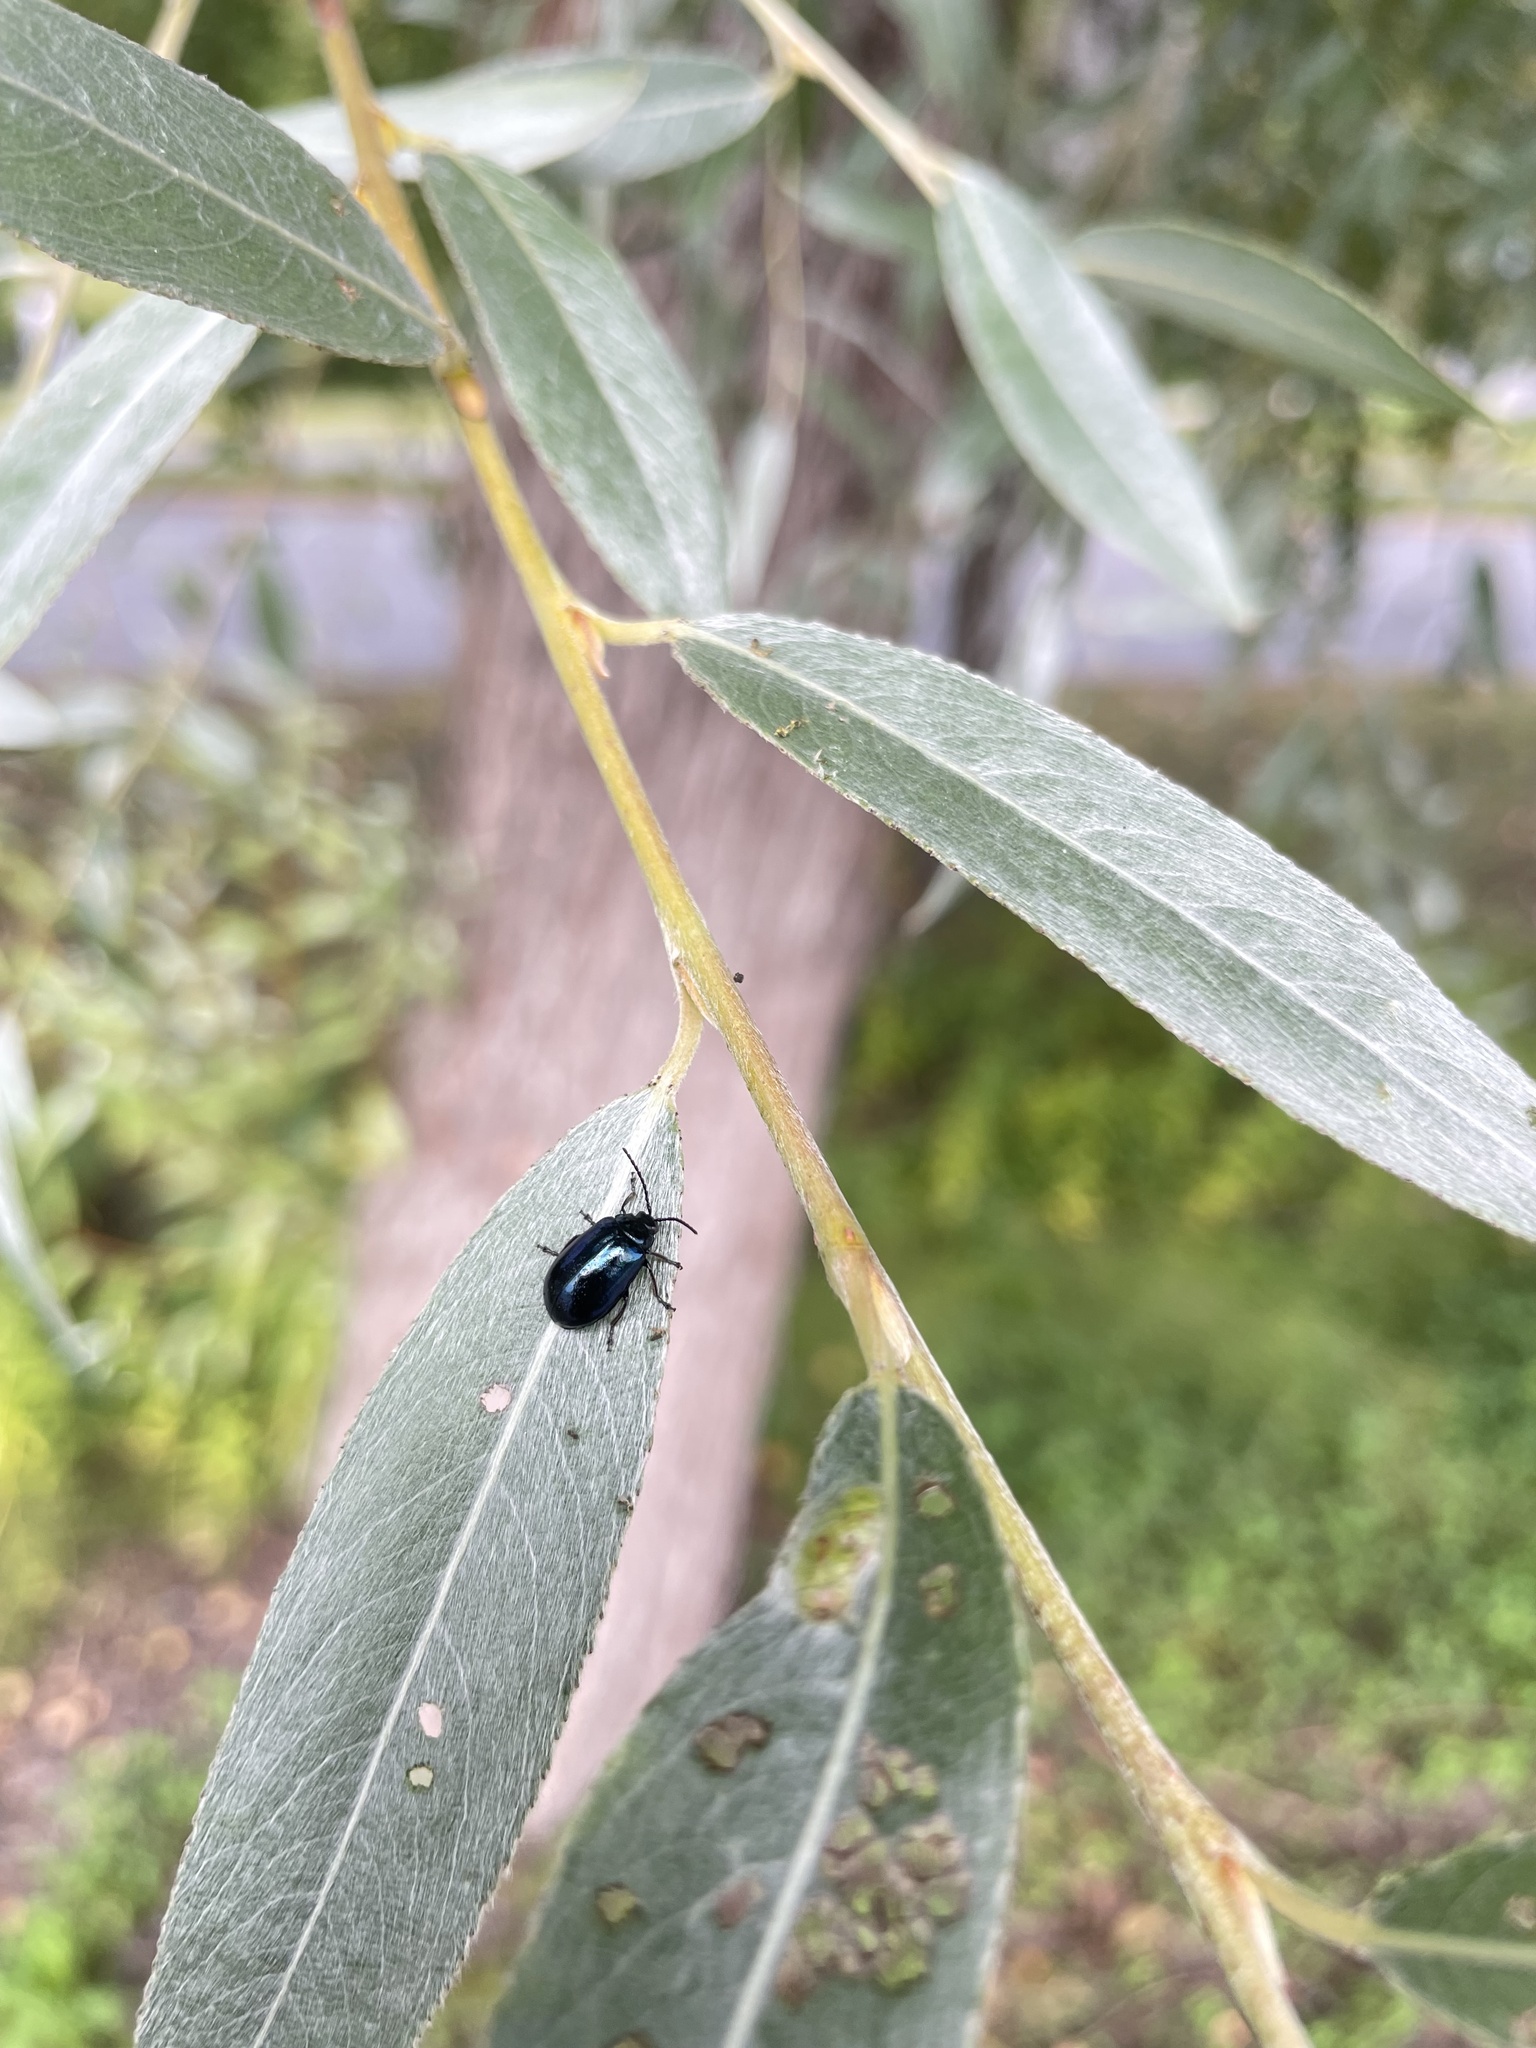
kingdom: Animalia
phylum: Arthropoda
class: Insecta
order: Coleoptera
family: Chrysomelidae
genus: Agelastica
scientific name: Agelastica alni
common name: Alder leaf beetle
